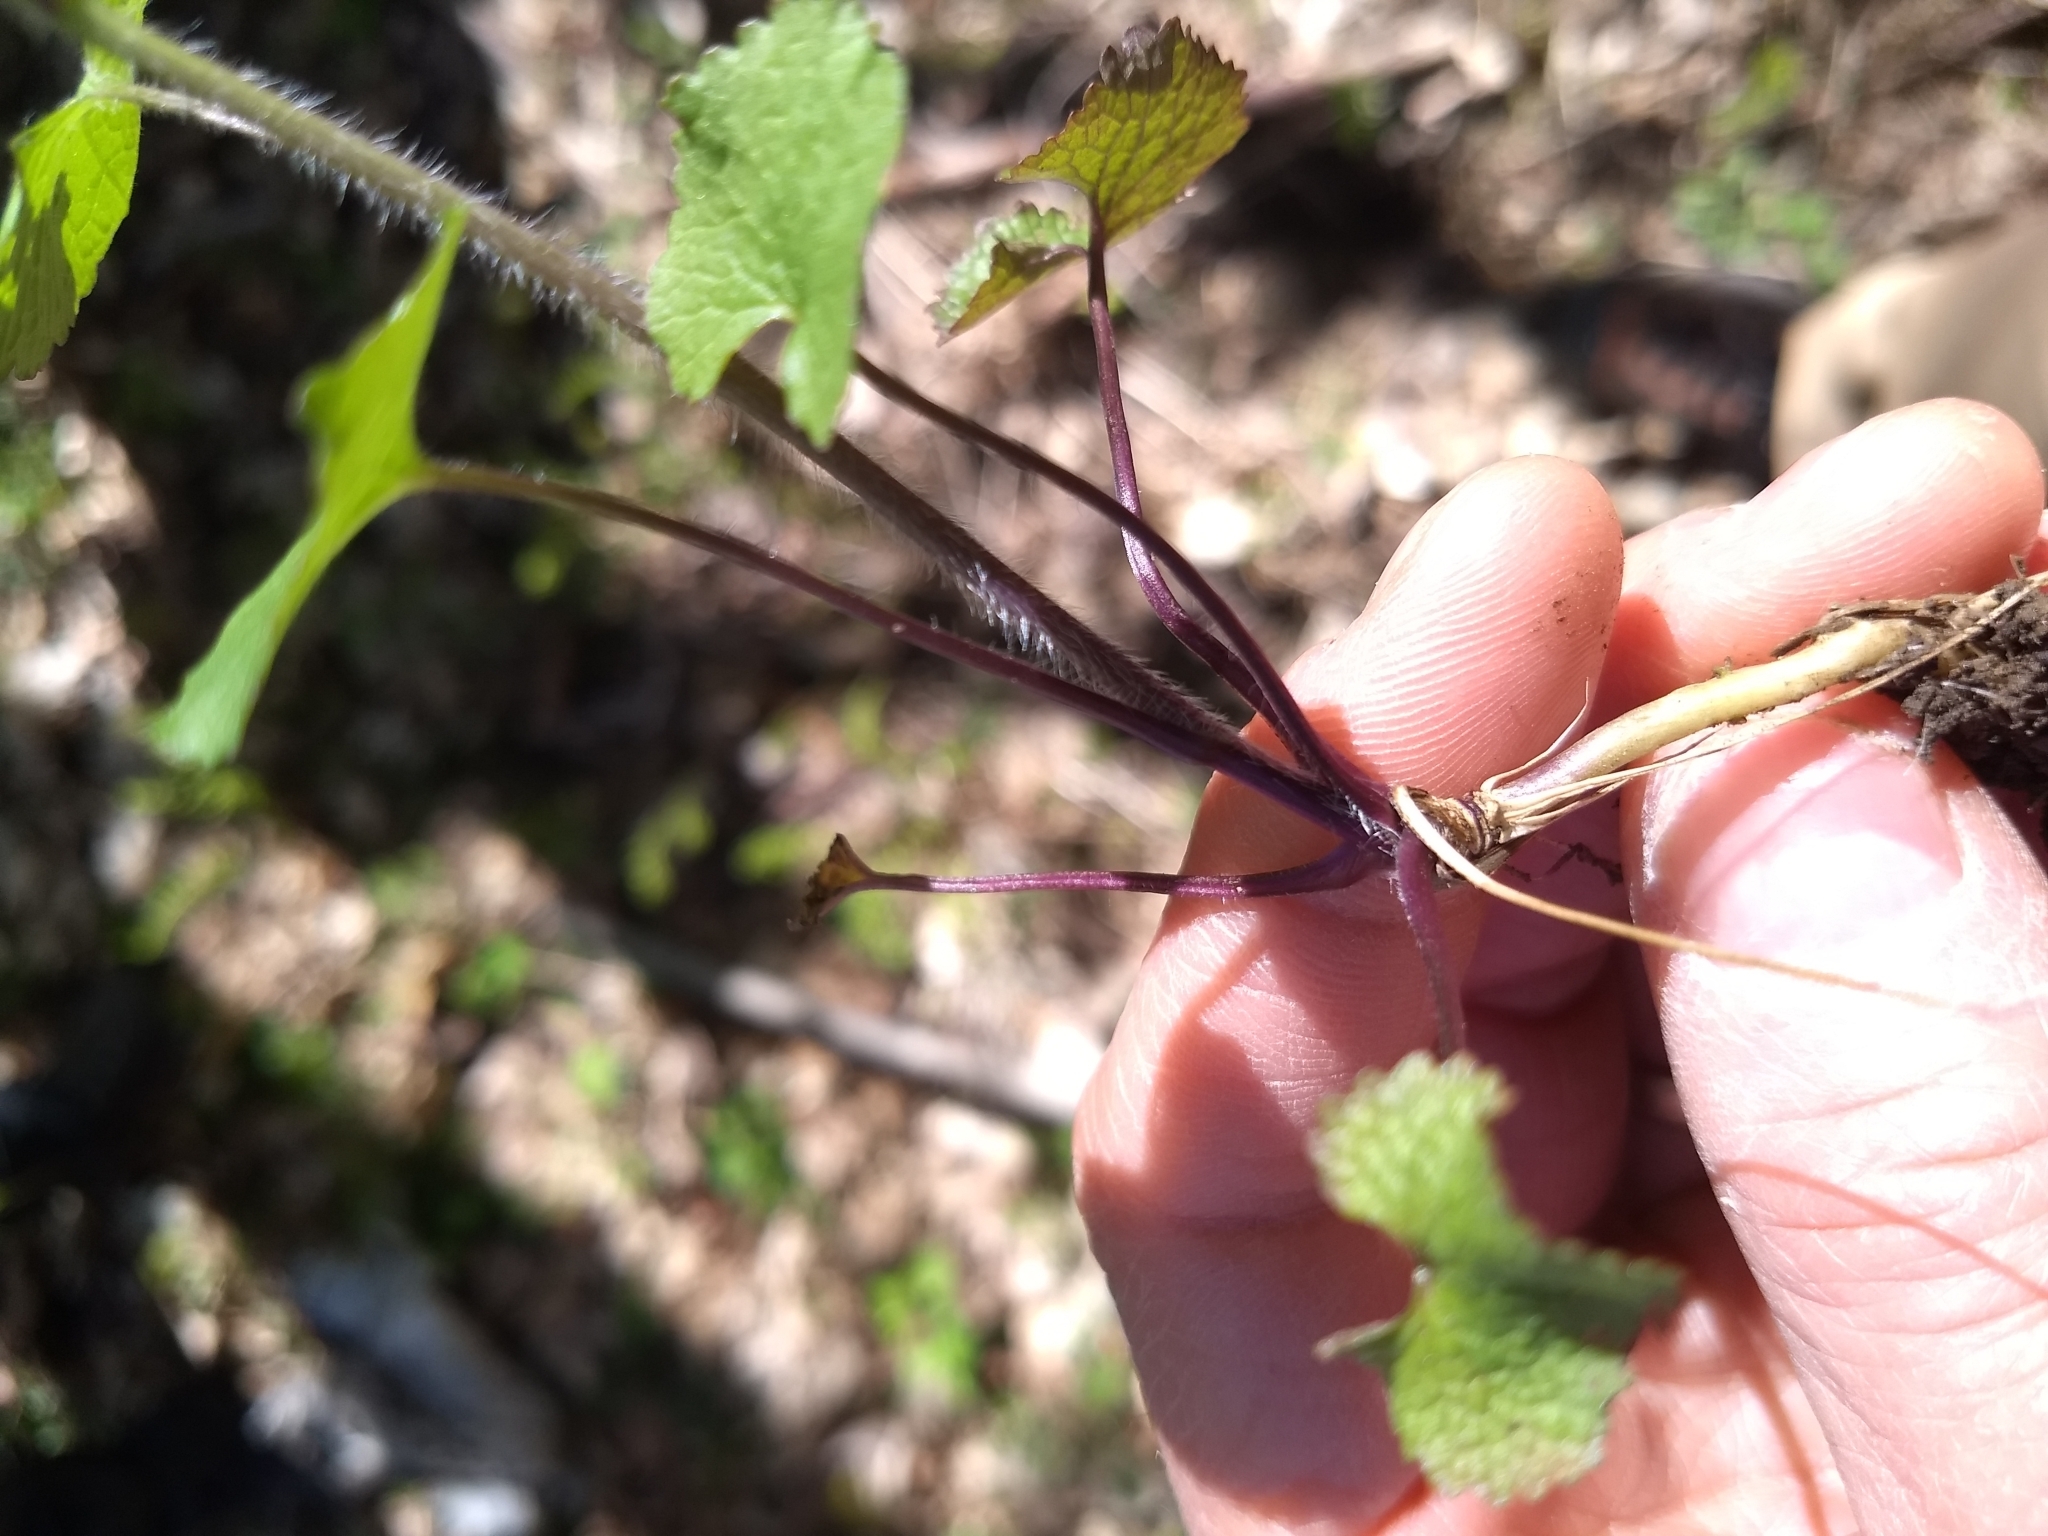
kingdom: Plantae
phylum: Tracheophyta
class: Magnoliopsida
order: Brassicales
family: Brassicaceae
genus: Alliaria
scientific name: Alliaria petiolata
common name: Garlic mustard
